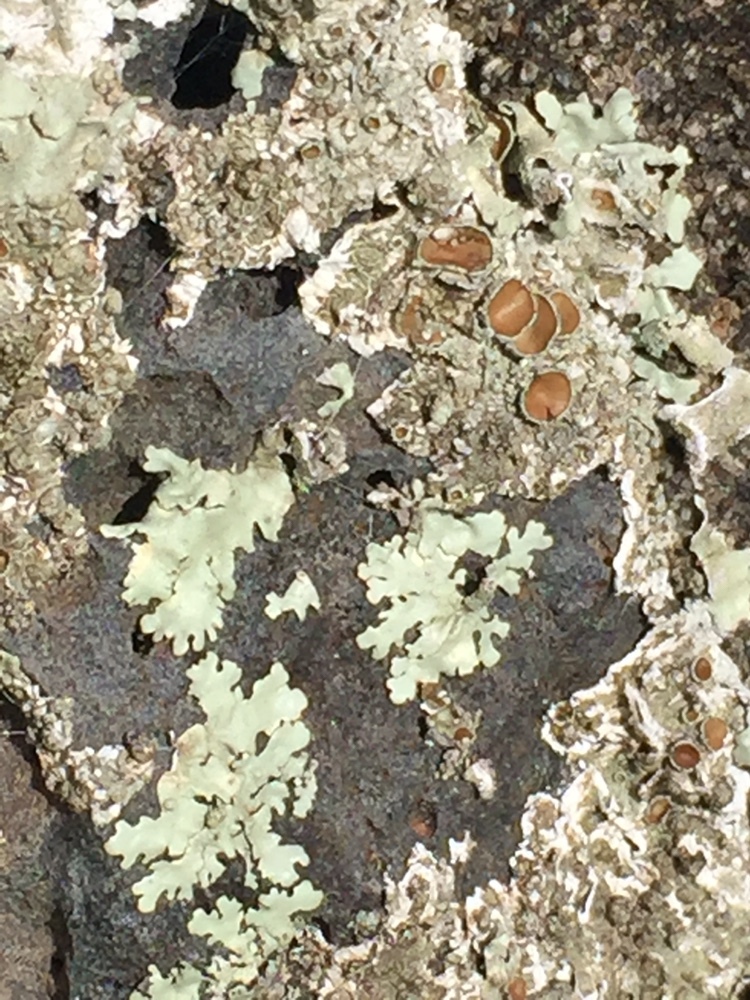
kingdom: Fungi
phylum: Ascomycota
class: Lecanoromycetes
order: Lecanorales
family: Parmeliaceae
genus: Xanthoparmelia
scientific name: Xanthoparmelia australasica
